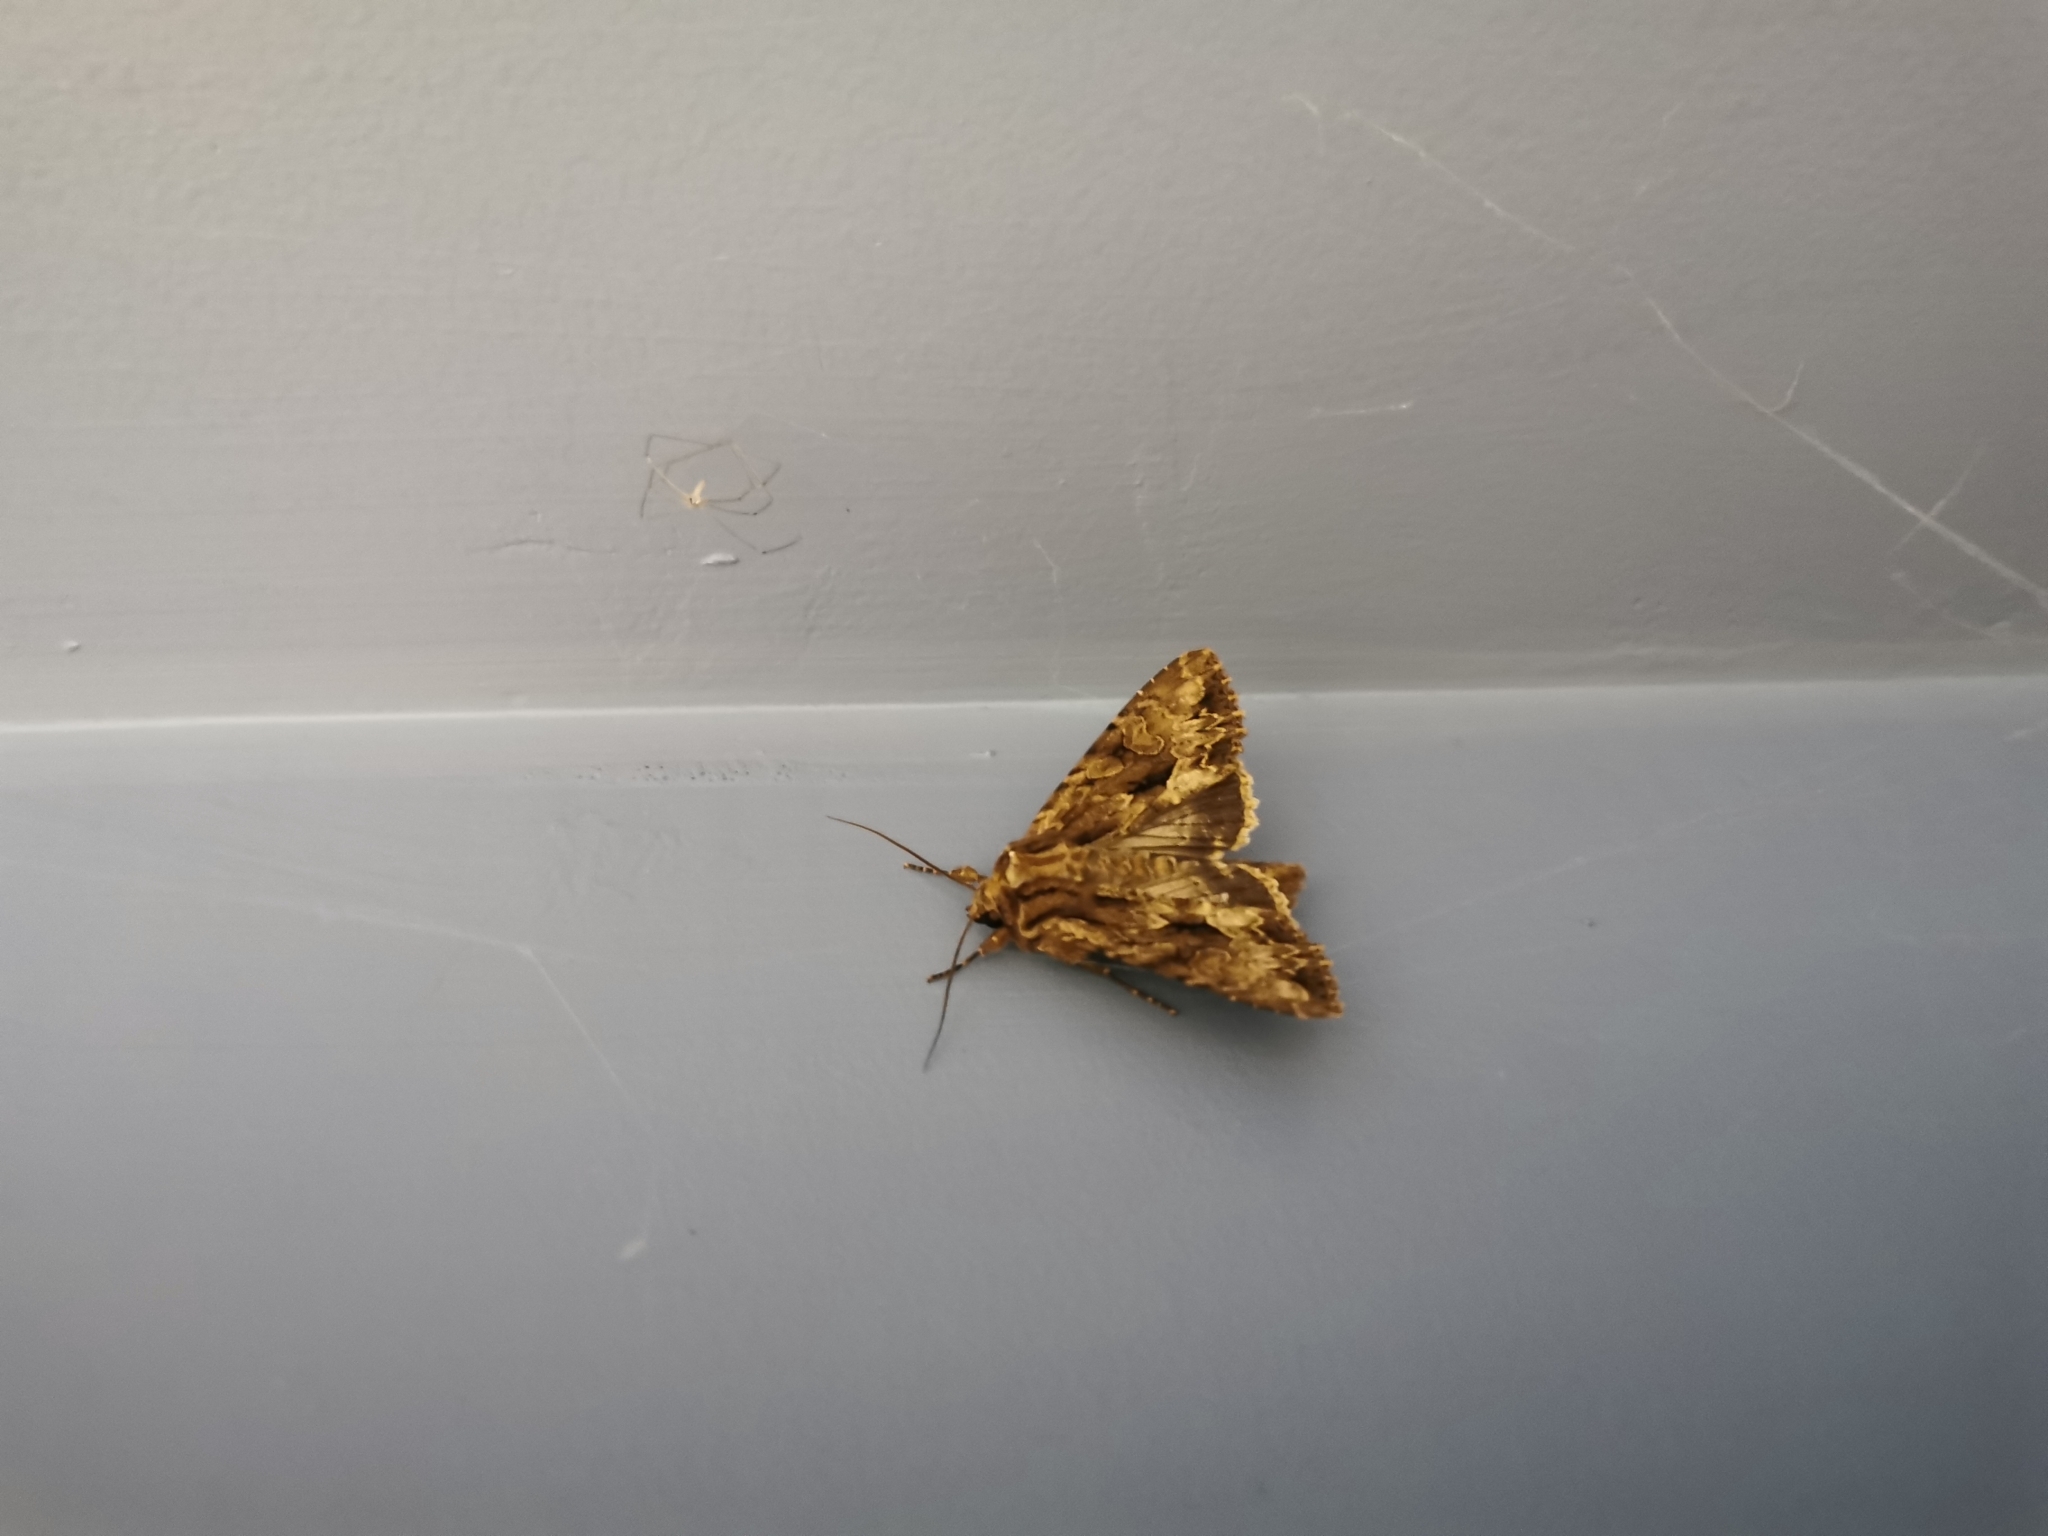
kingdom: Animalia
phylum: Arthropoda
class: Insecta
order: Lepidoptera
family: Noctuidae
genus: Apamea
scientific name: Apamea monoglypha
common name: Dark arches
